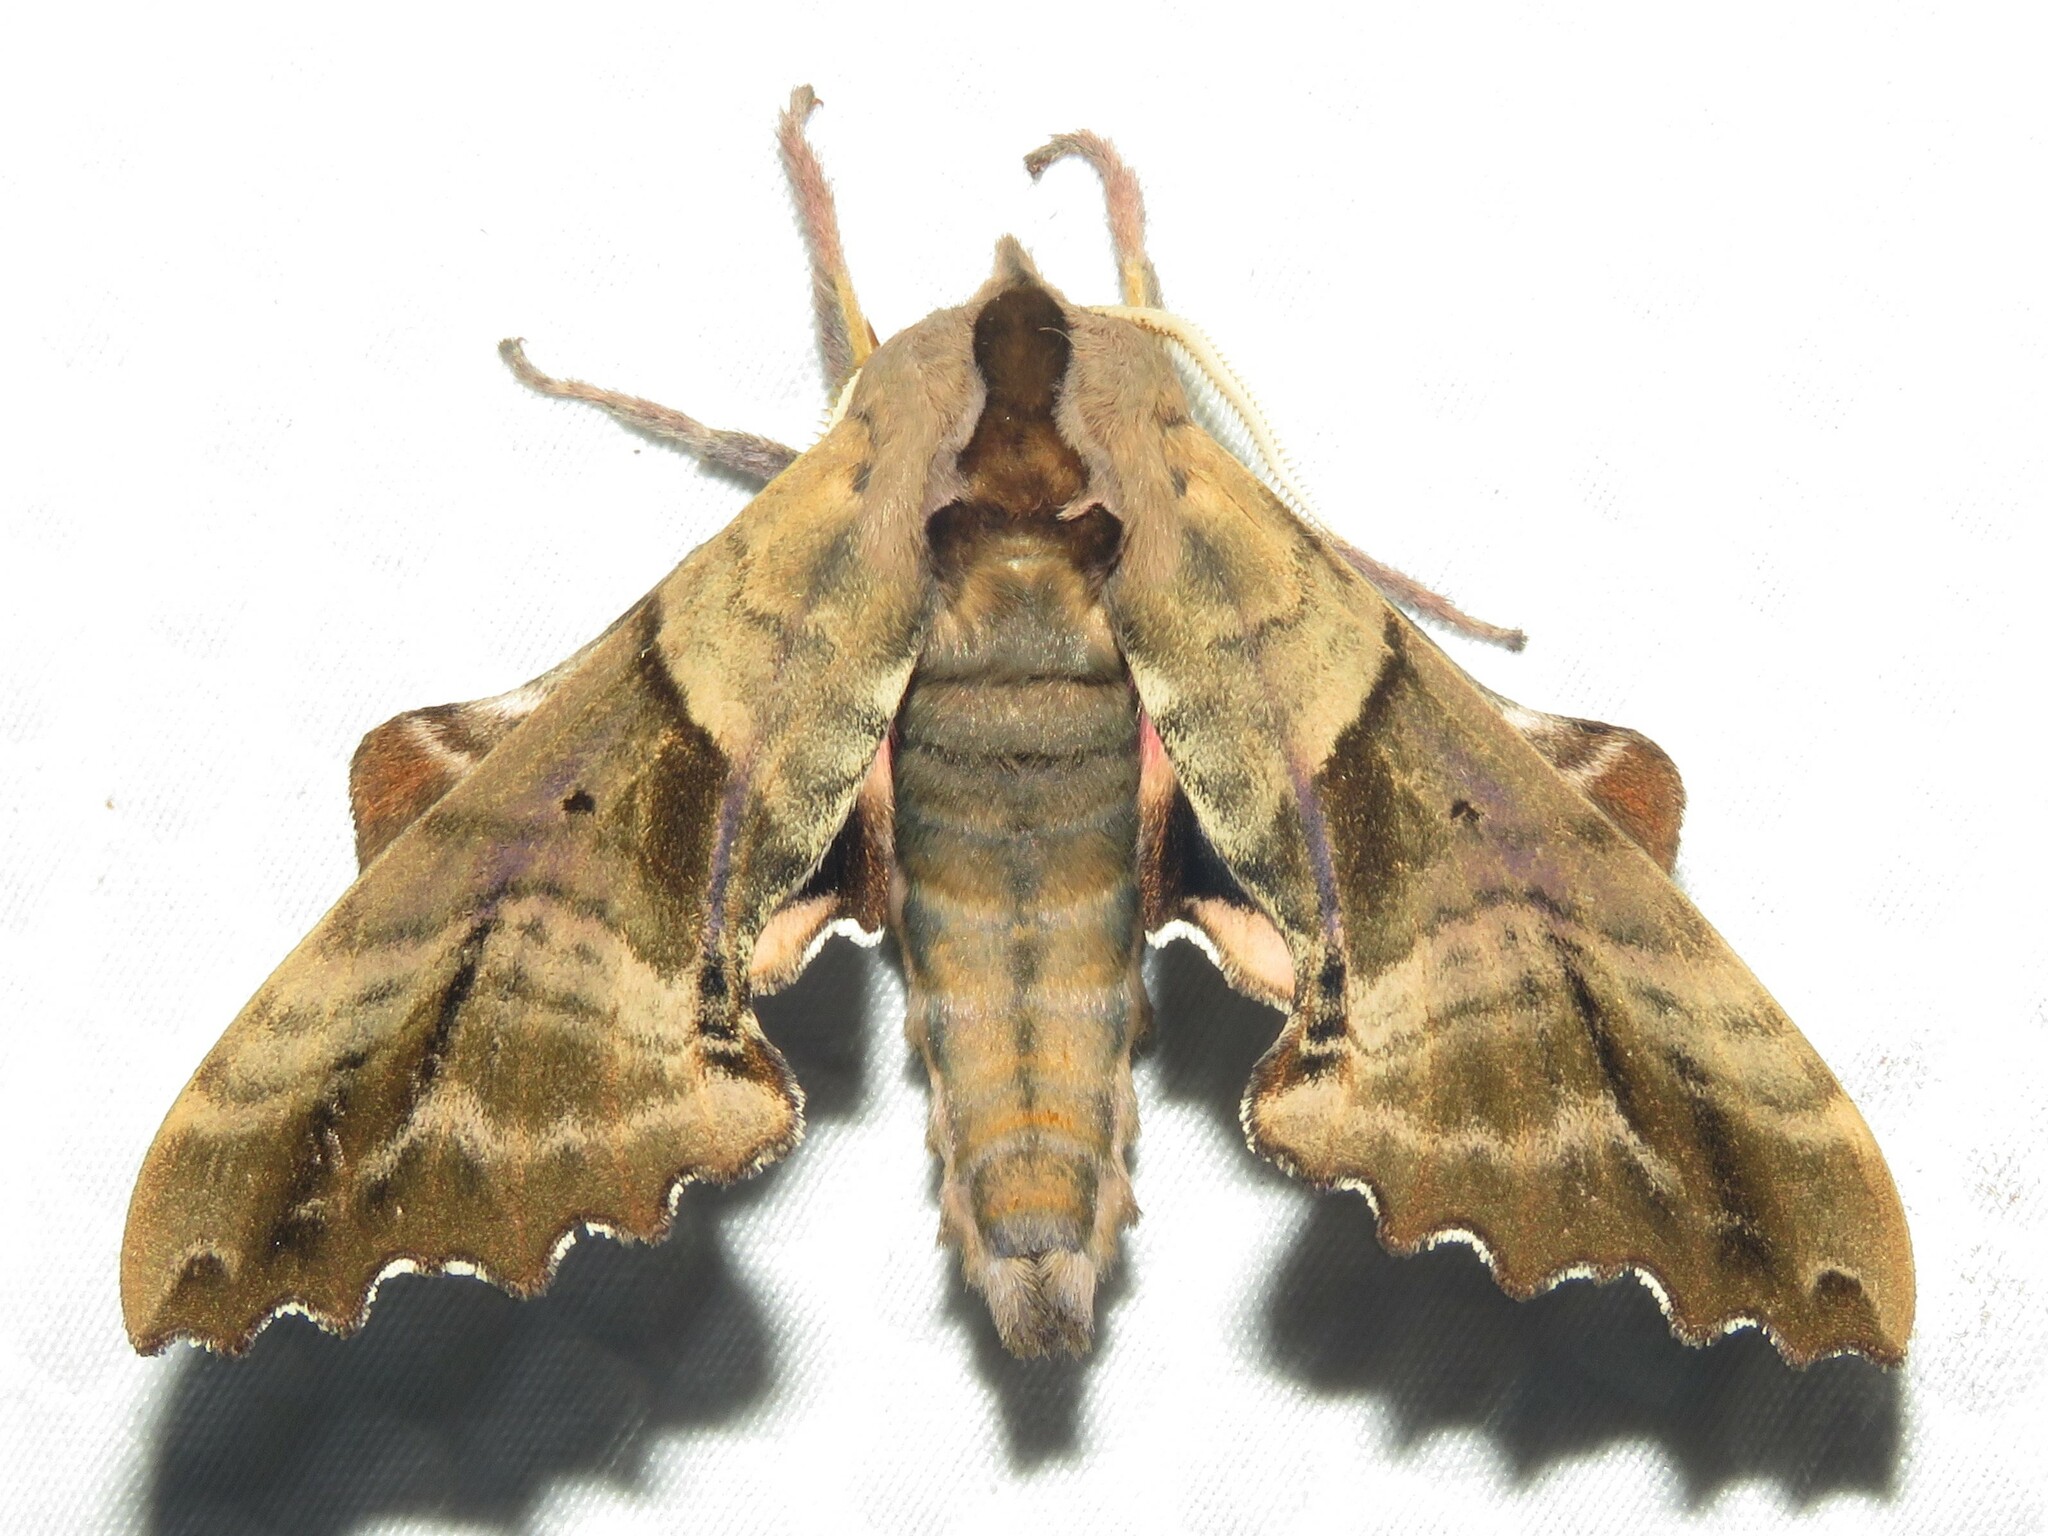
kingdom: Animalia
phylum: Arthropoda
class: Insecta
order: Lepidoptera
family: Sphingidae
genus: Paonias
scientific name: Paonias excaecata
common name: Blind-eyed sphinx
